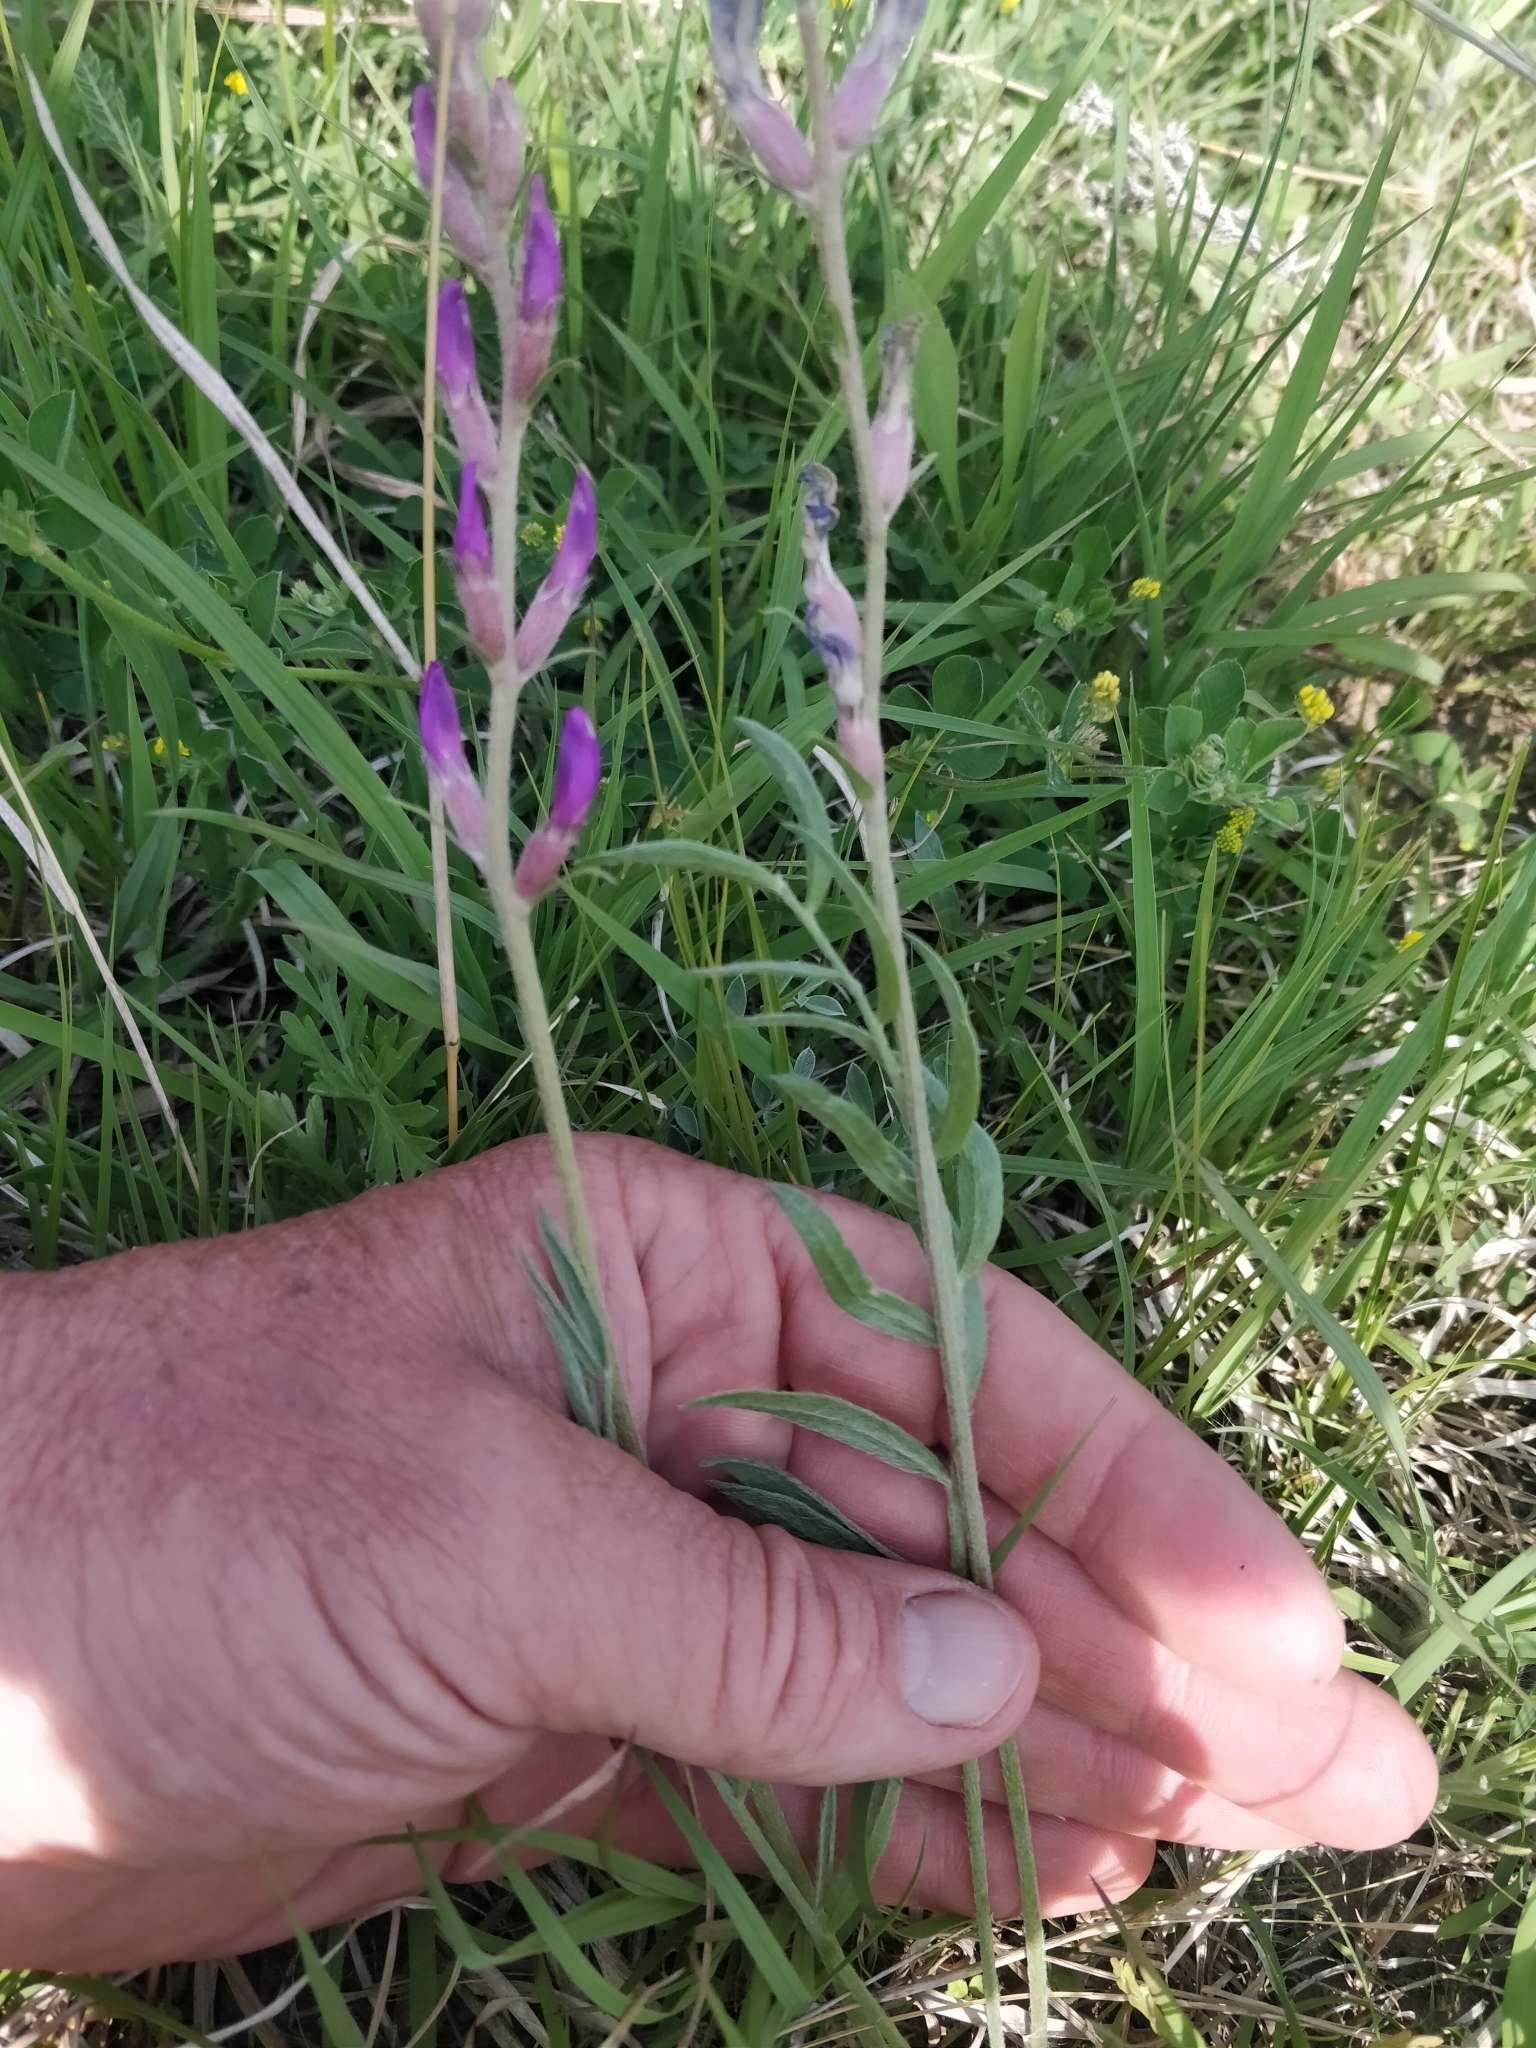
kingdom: Plantae
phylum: Tracheophyta
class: Magnoliopsida
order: Fabales
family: Fabaceae
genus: Oxytropis
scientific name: Oxytropis lambertii
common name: Purple locoweed
